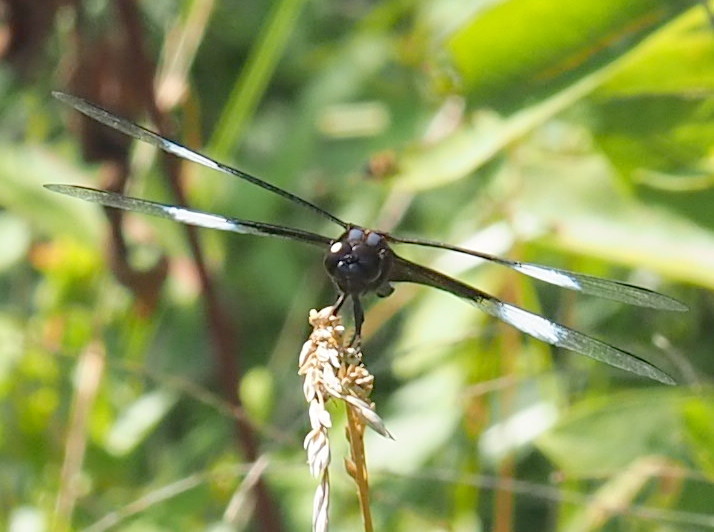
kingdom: Animalia
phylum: Arthropoda
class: Insecta
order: Odonata
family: Libellulidae
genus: Libellula
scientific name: Libellula luctuosa
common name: Widow skimmer
